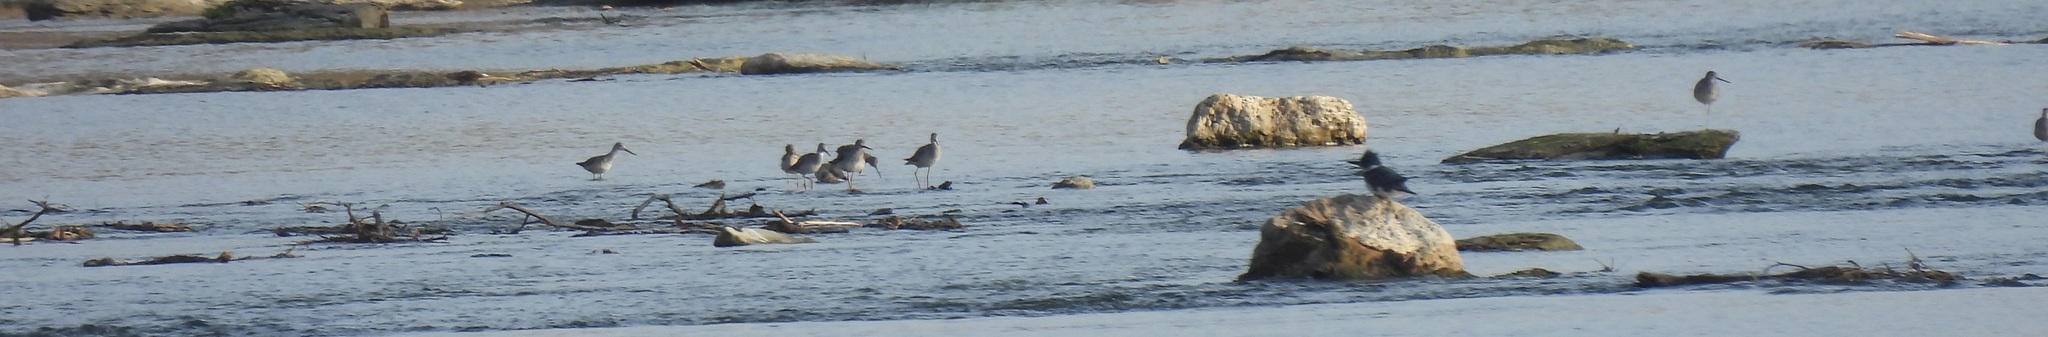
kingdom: Animalia
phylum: Chordata
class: Aves
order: Charadriiformes
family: Scolopacidae
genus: Tringa
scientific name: Tringa melanoleuca
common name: Greater yellowlegs
